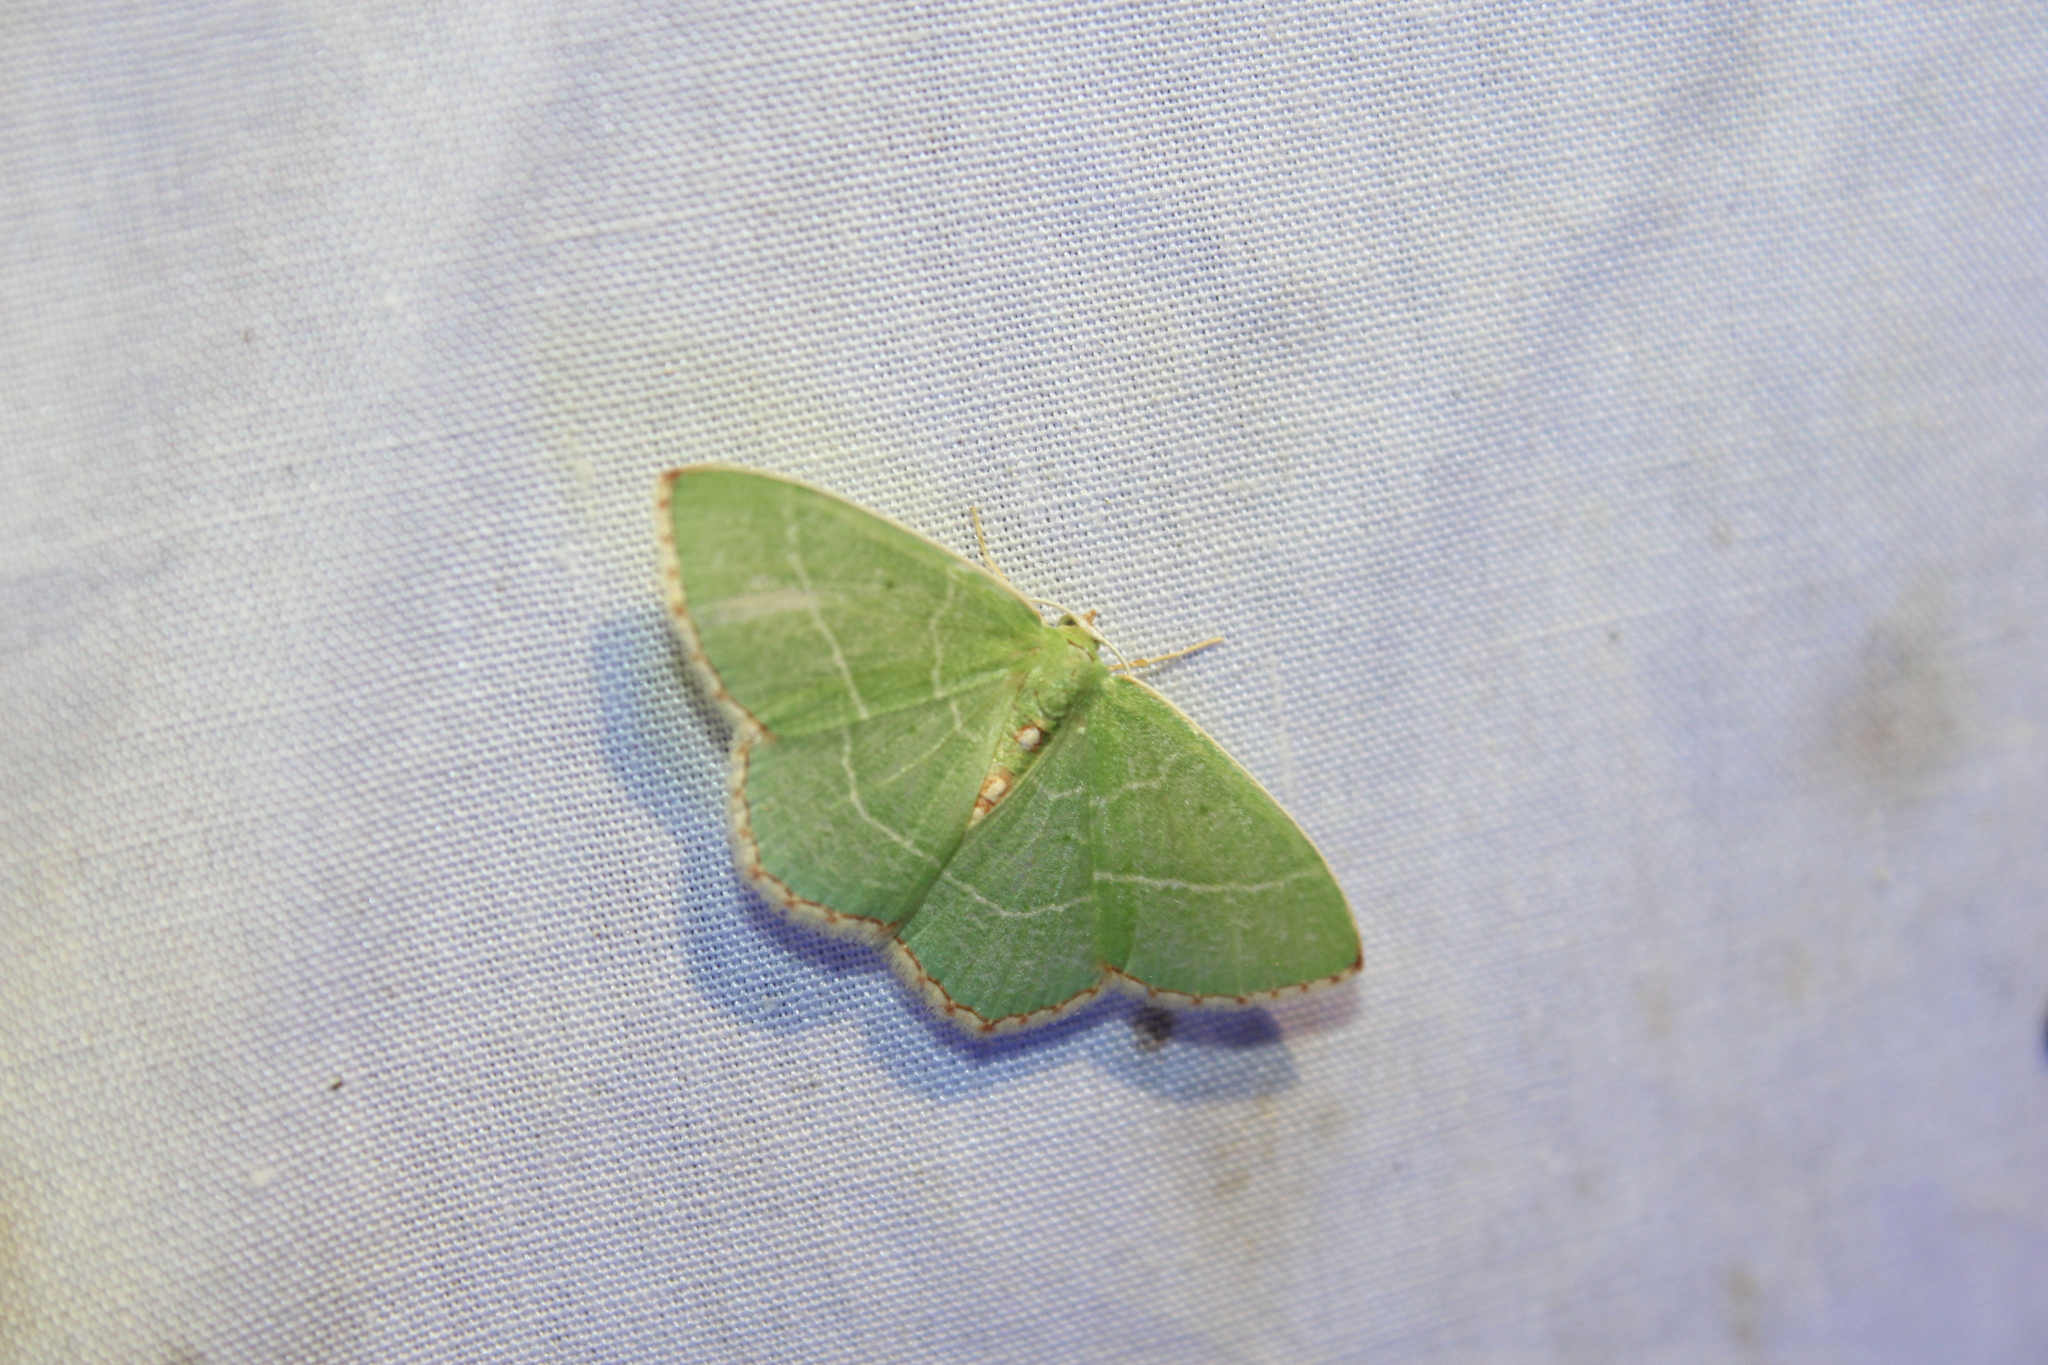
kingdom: Animalia
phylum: Arthropoda
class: Insecta
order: Lepidoptera
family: Geometridae
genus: Nemoria
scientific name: Nemoria bistriaria
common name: Red-fringed emerald
